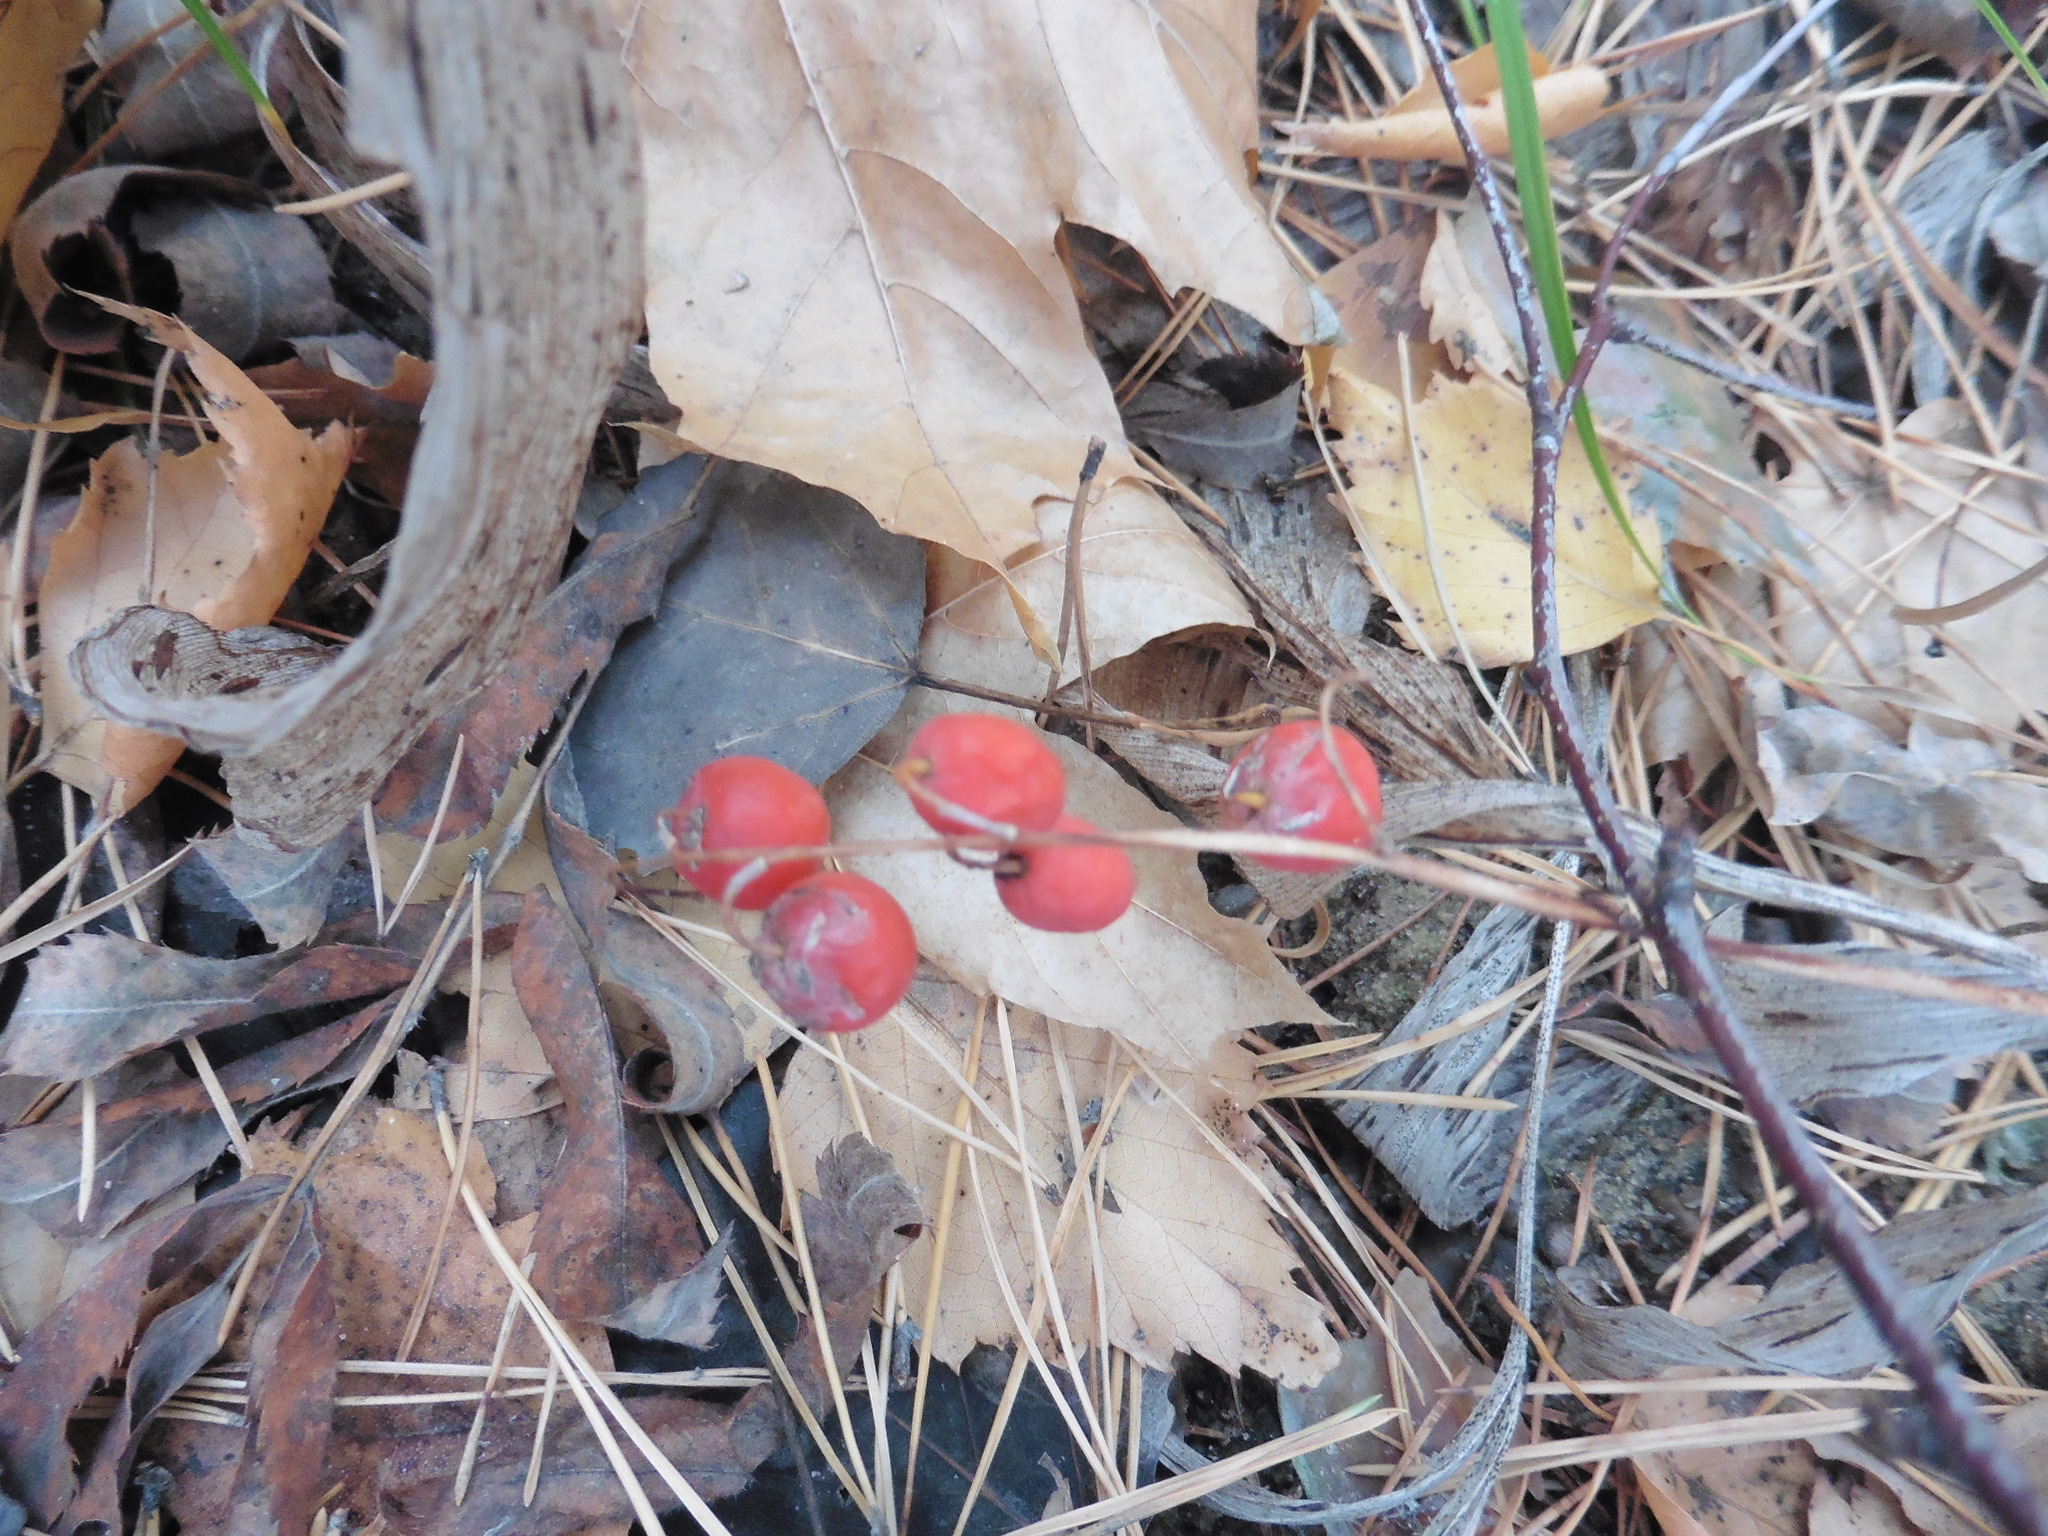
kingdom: Plantae
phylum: Tracheophyta
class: Liliopsida
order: Asparagales
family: Asparagaceae
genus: Convallaria
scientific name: Convallaria majalis
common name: Lily-of-the-valley
